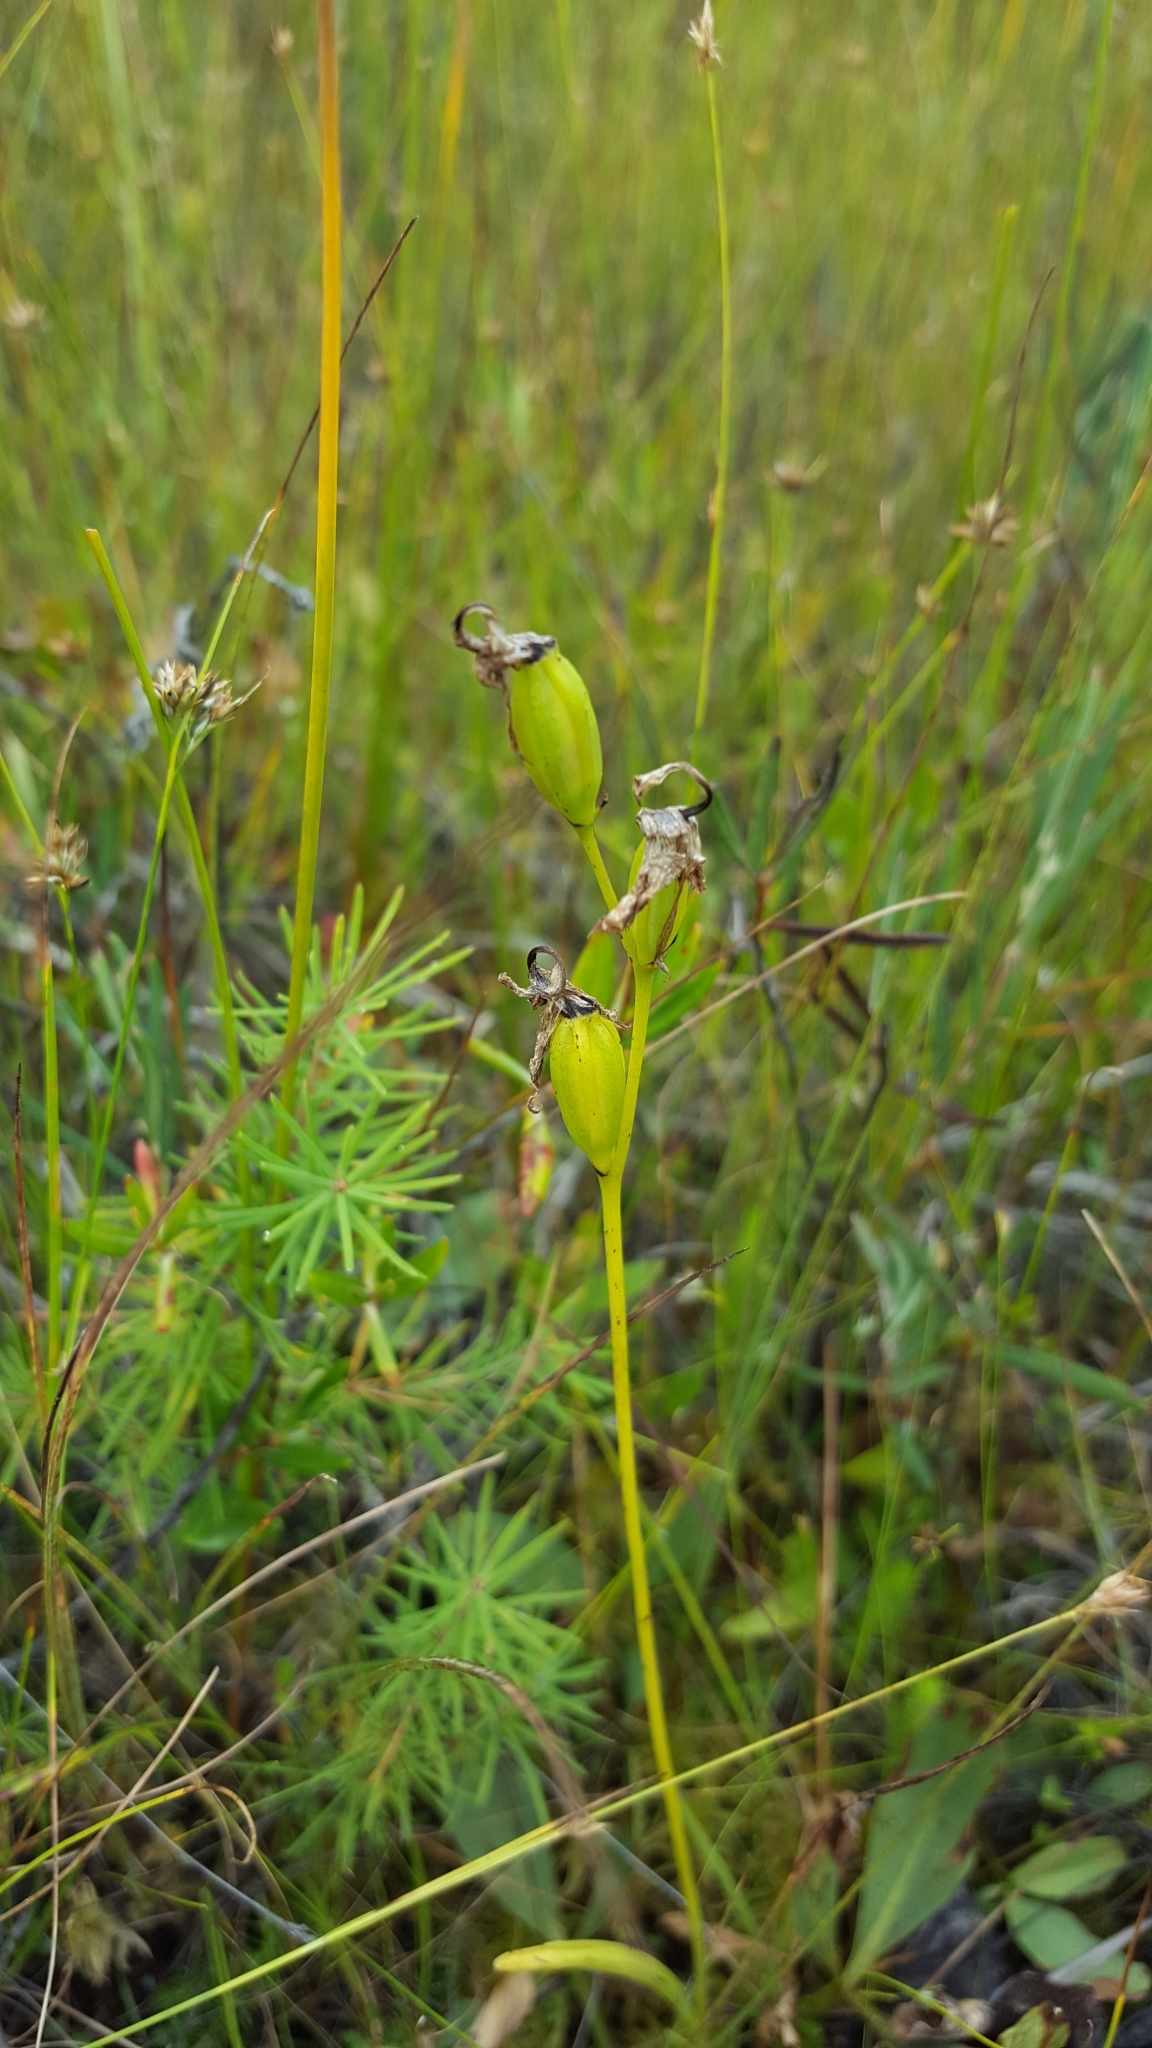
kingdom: Plantae
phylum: Tracheophyta
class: Liliopsida
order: Asparagales
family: Orchidaceae
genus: Calopogon
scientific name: Calopogon tuberosus
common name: Grass-pink
